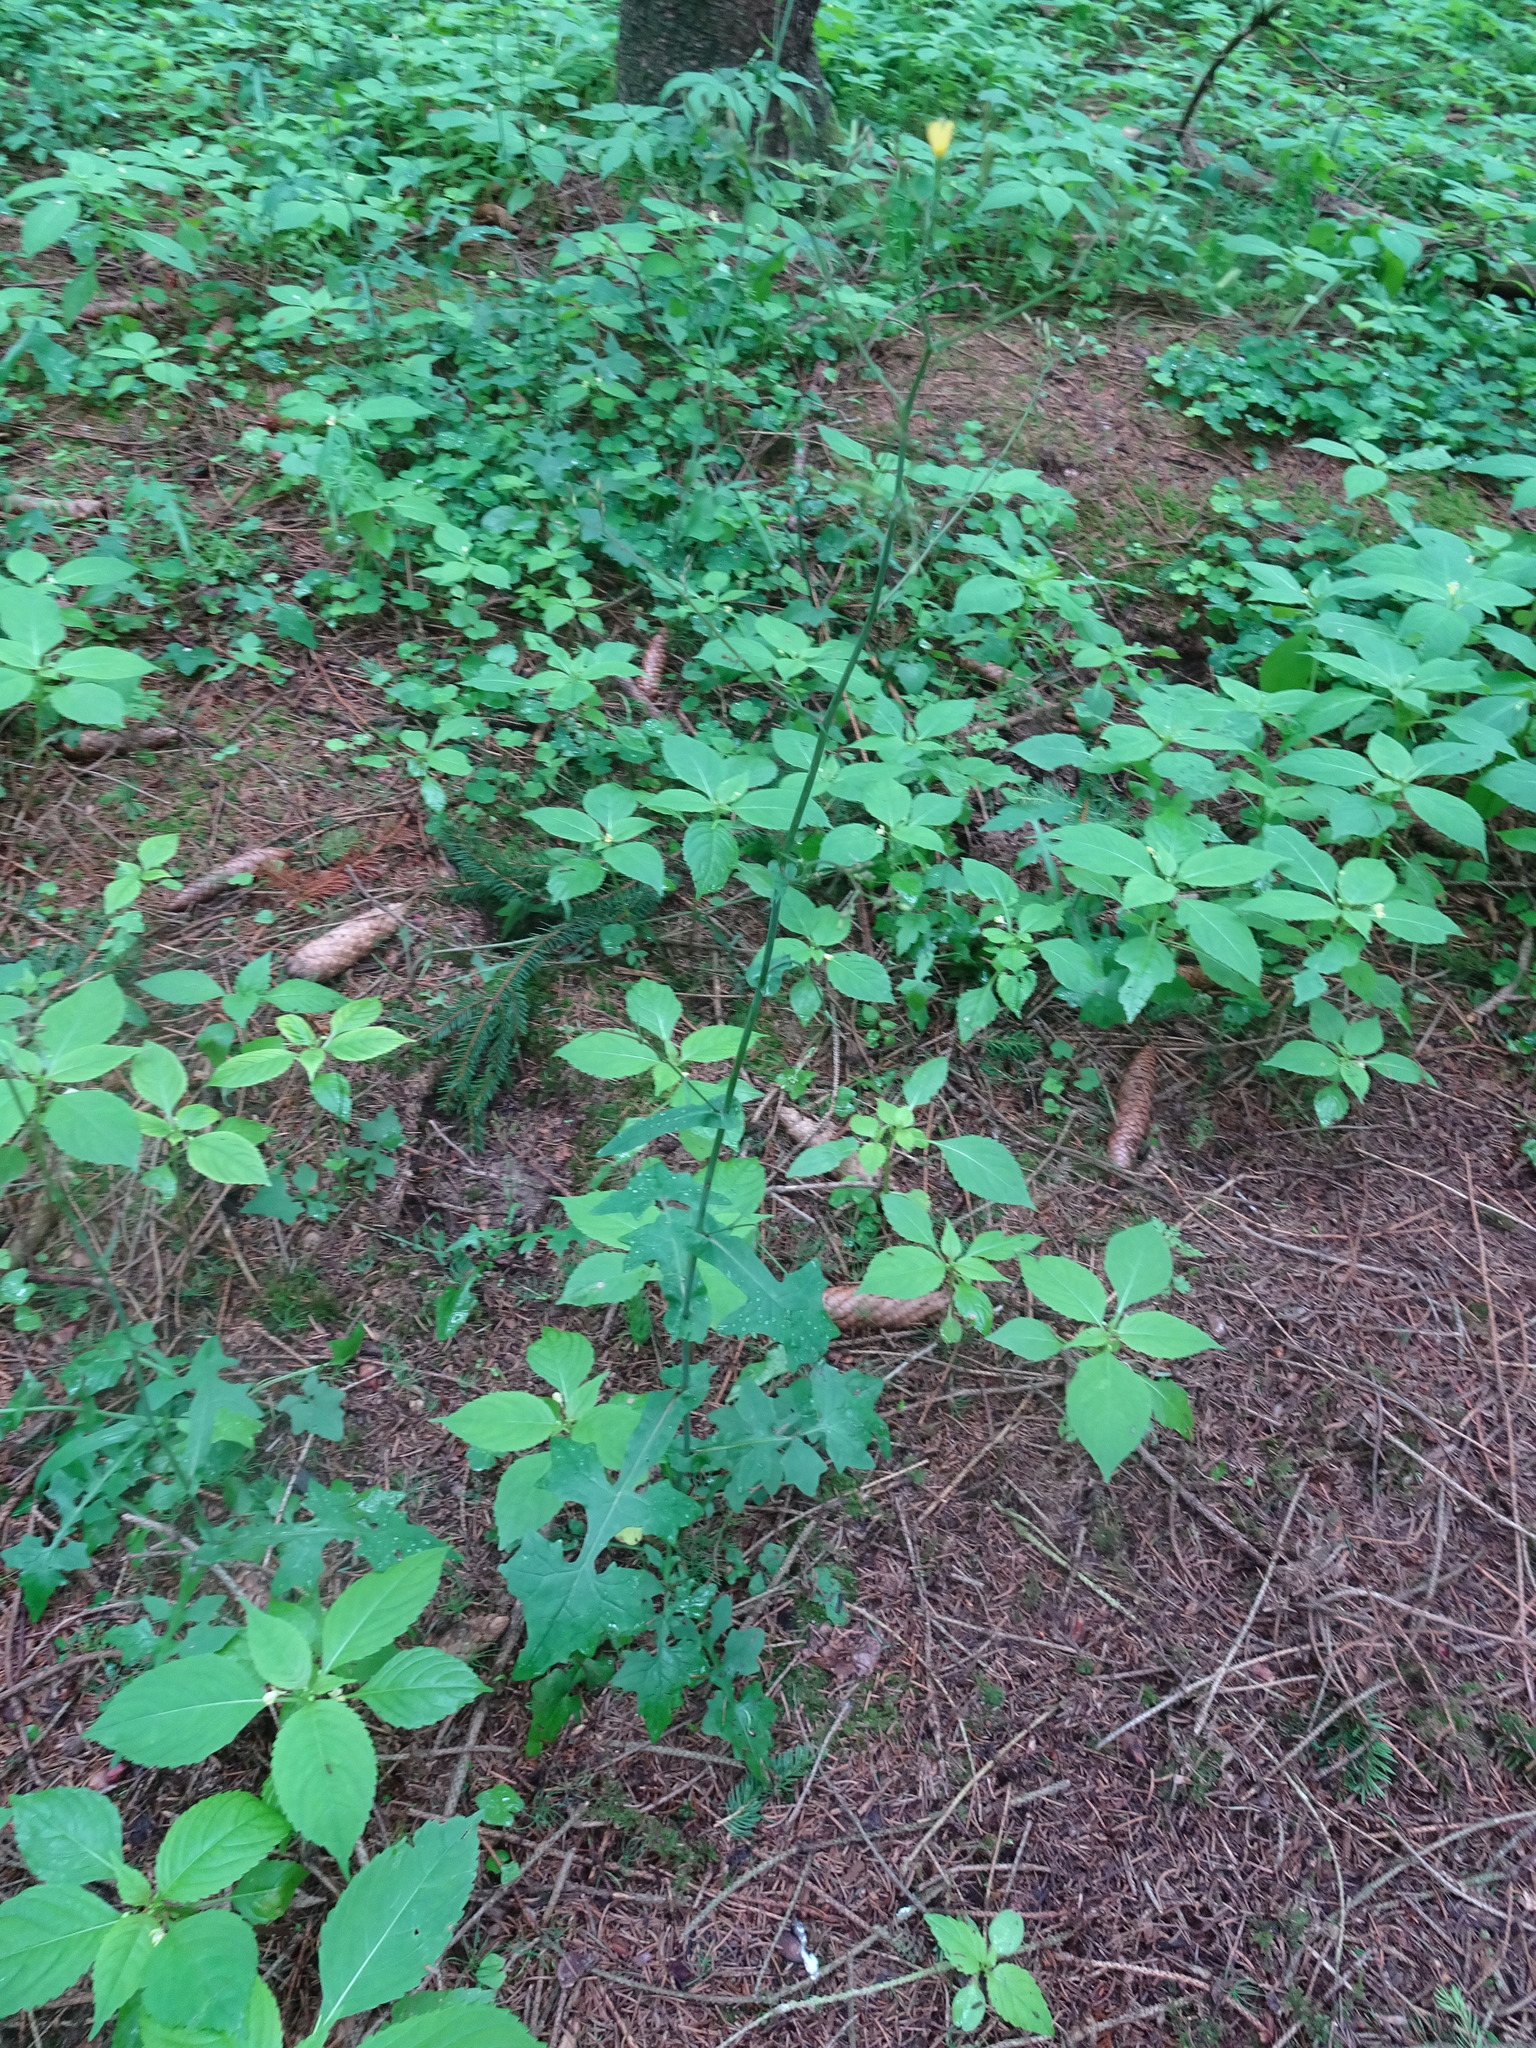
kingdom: Plantae
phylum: Tracheophyta
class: Magnoliopsida
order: Asterales
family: Asteraceae
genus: Mycelis
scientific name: Mycelis muralis
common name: Wall lettuce
